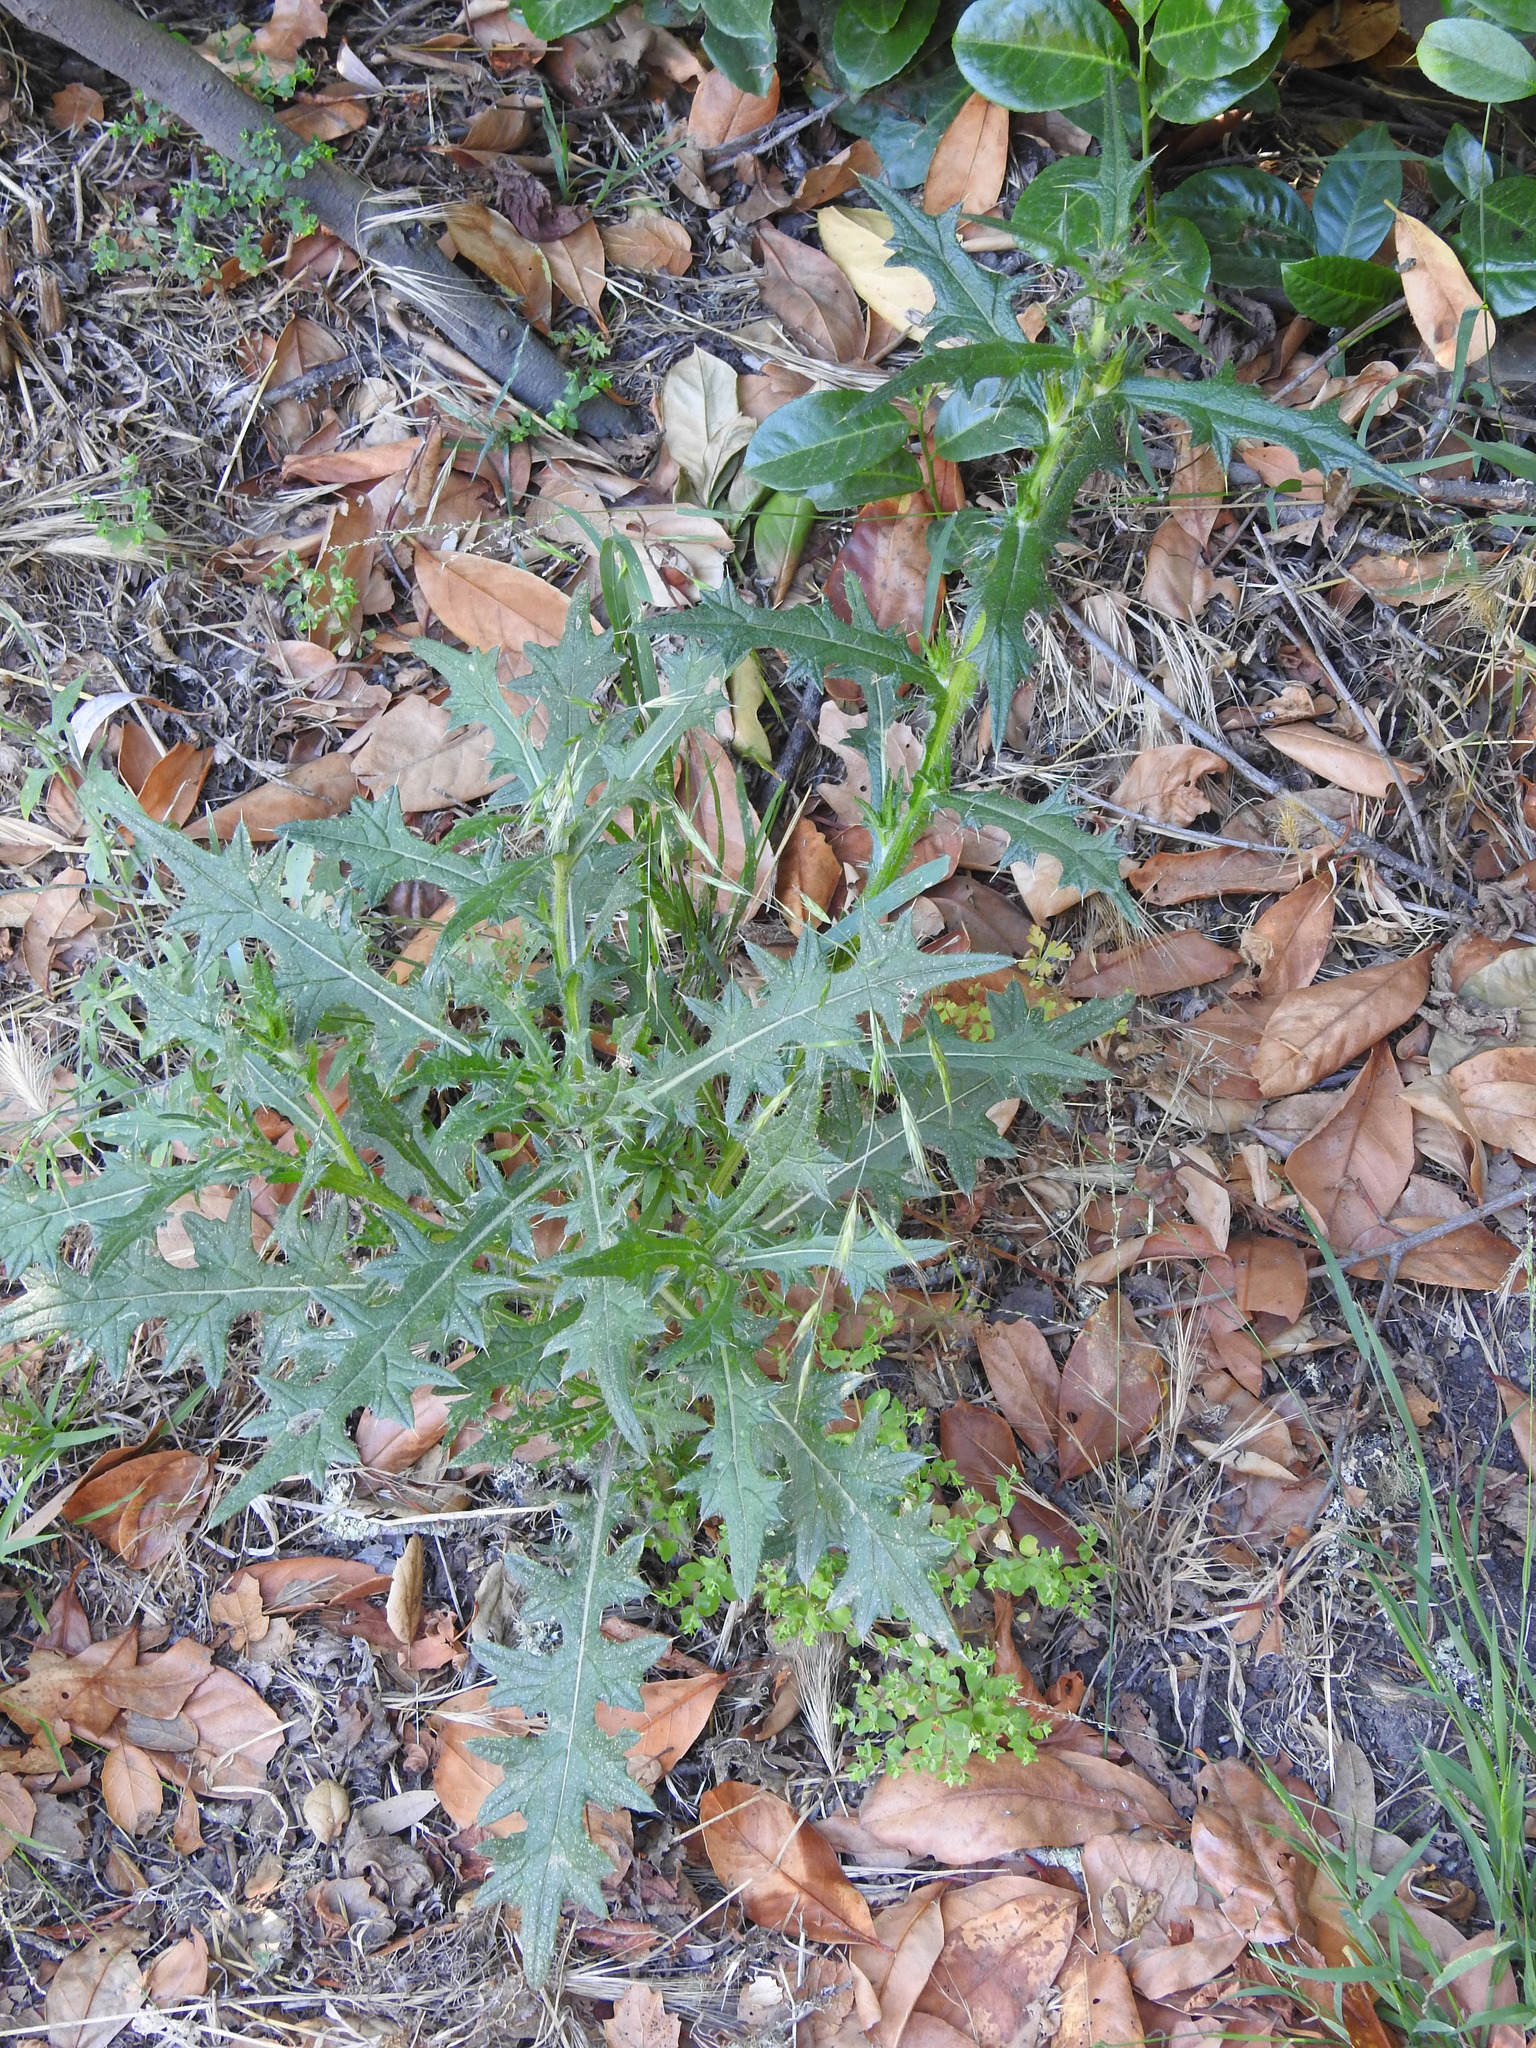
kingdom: Plantae
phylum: Tracheophyta
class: Magnoliopsida
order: Asterales
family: Asteraceae
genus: Cirsium
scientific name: Cirsium vulgare
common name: Bull thistle
